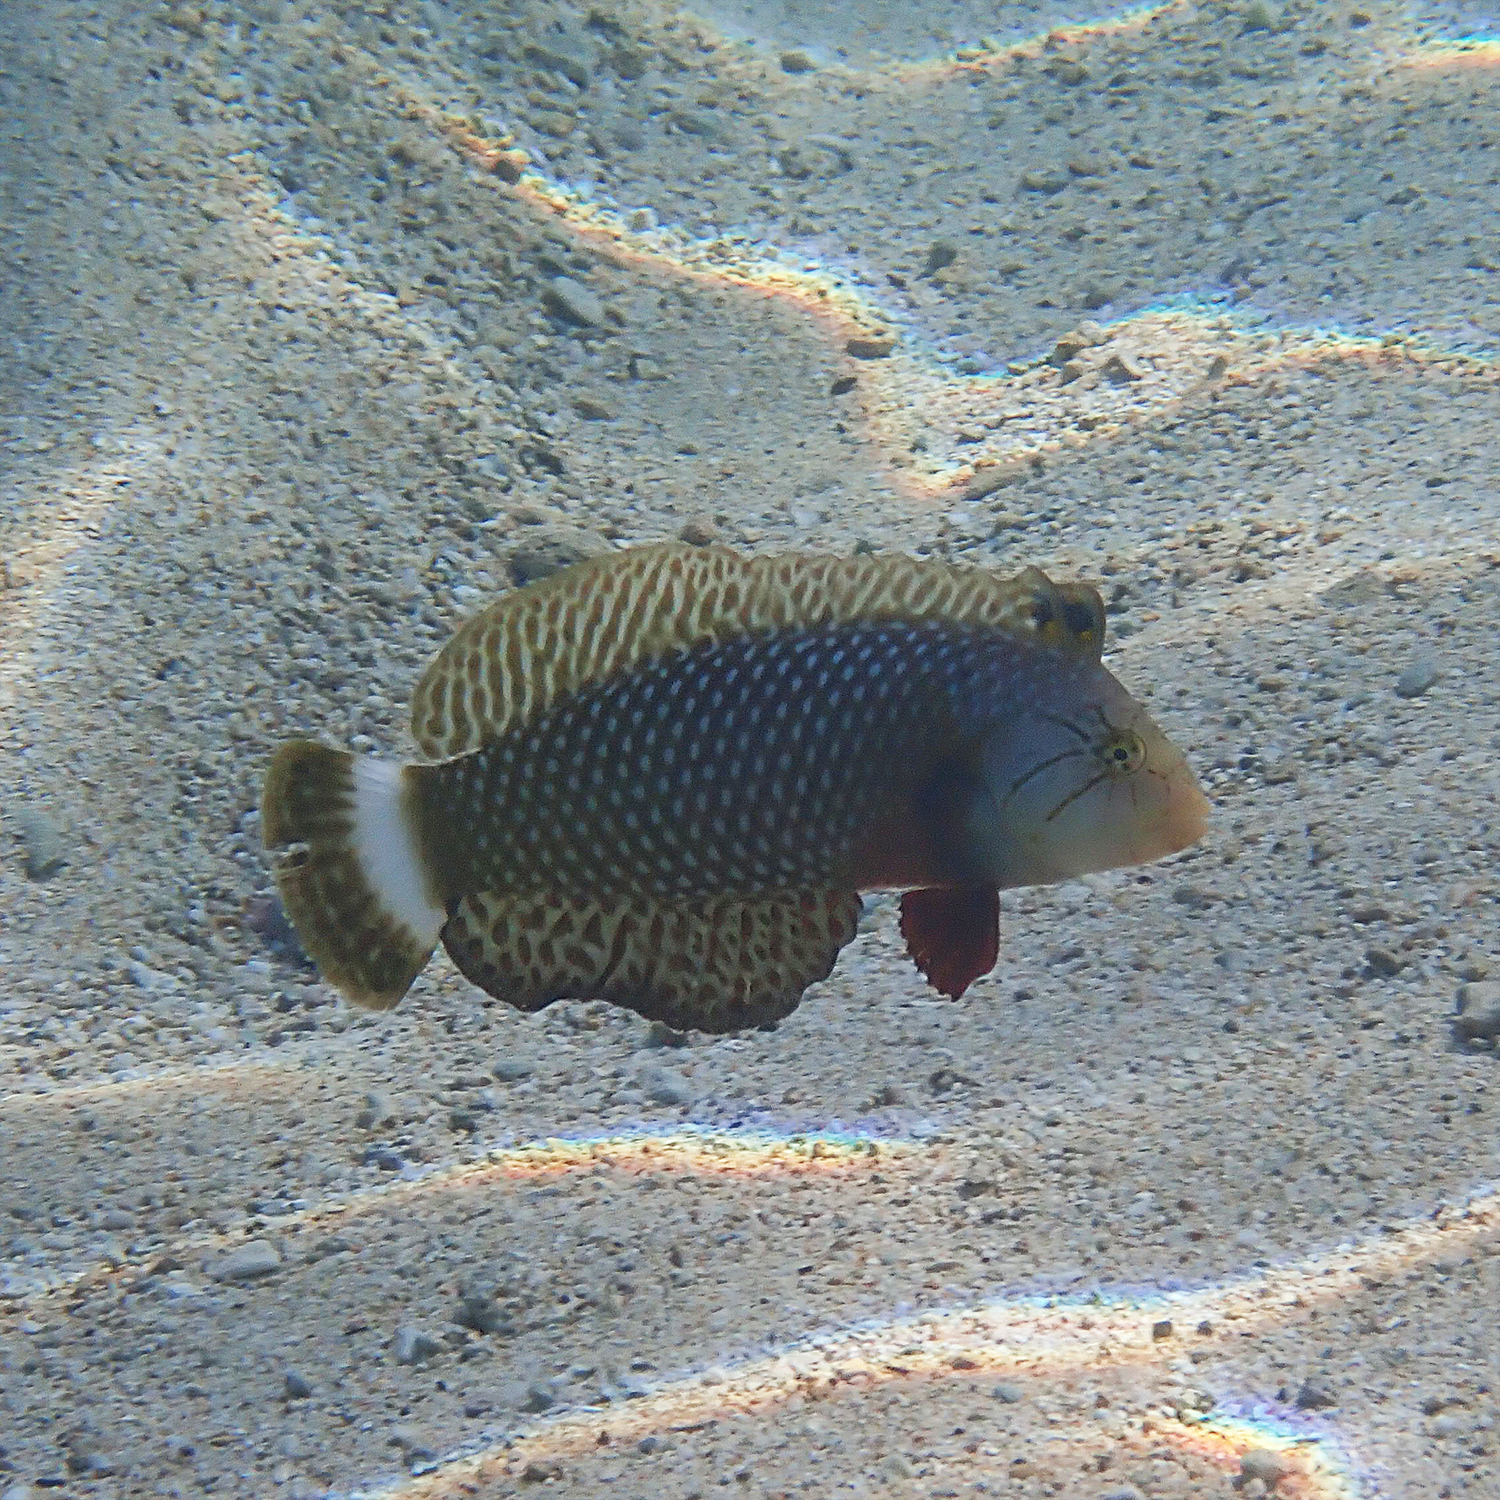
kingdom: Animalia
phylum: Chordata
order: Perciformes
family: Labridae
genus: Novaculichthys
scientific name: Novaculichthys taeniourus
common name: Rockmover wrasse
